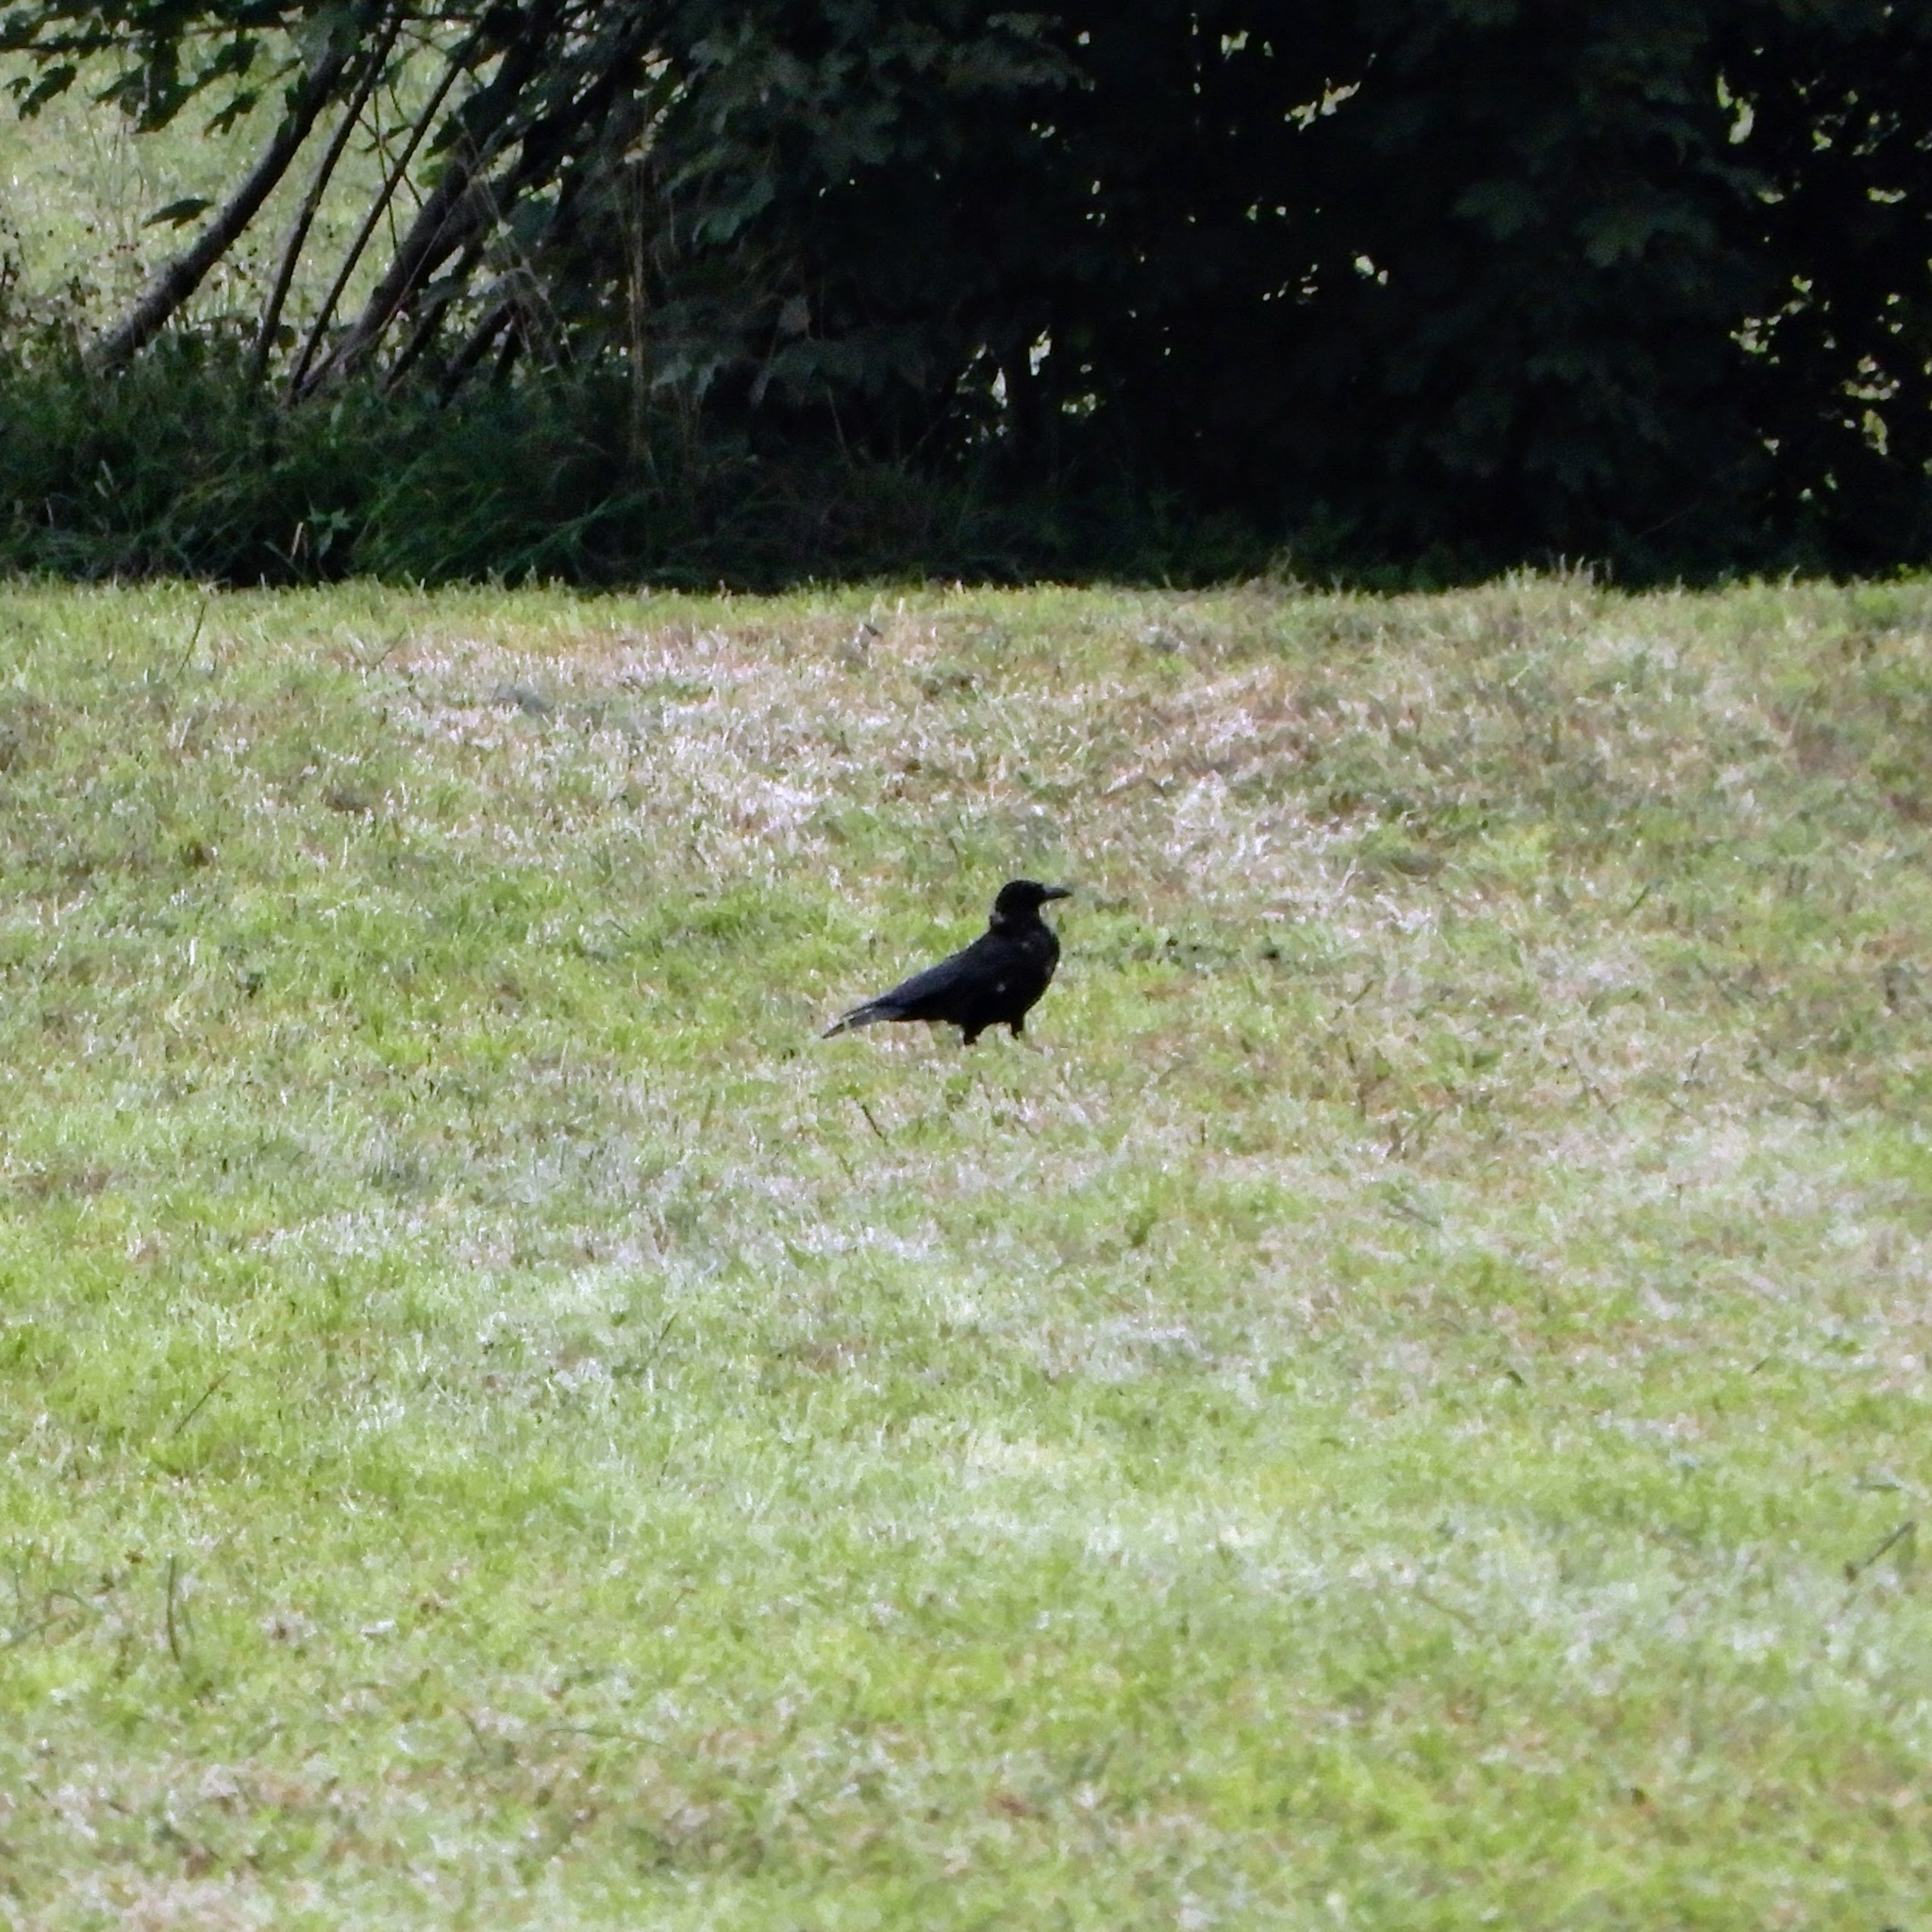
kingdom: Animalia
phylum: Chordata
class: Aves
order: Passeriformes
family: Corvidae
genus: Corvus
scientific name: Corvus corone
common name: Carrion crow
